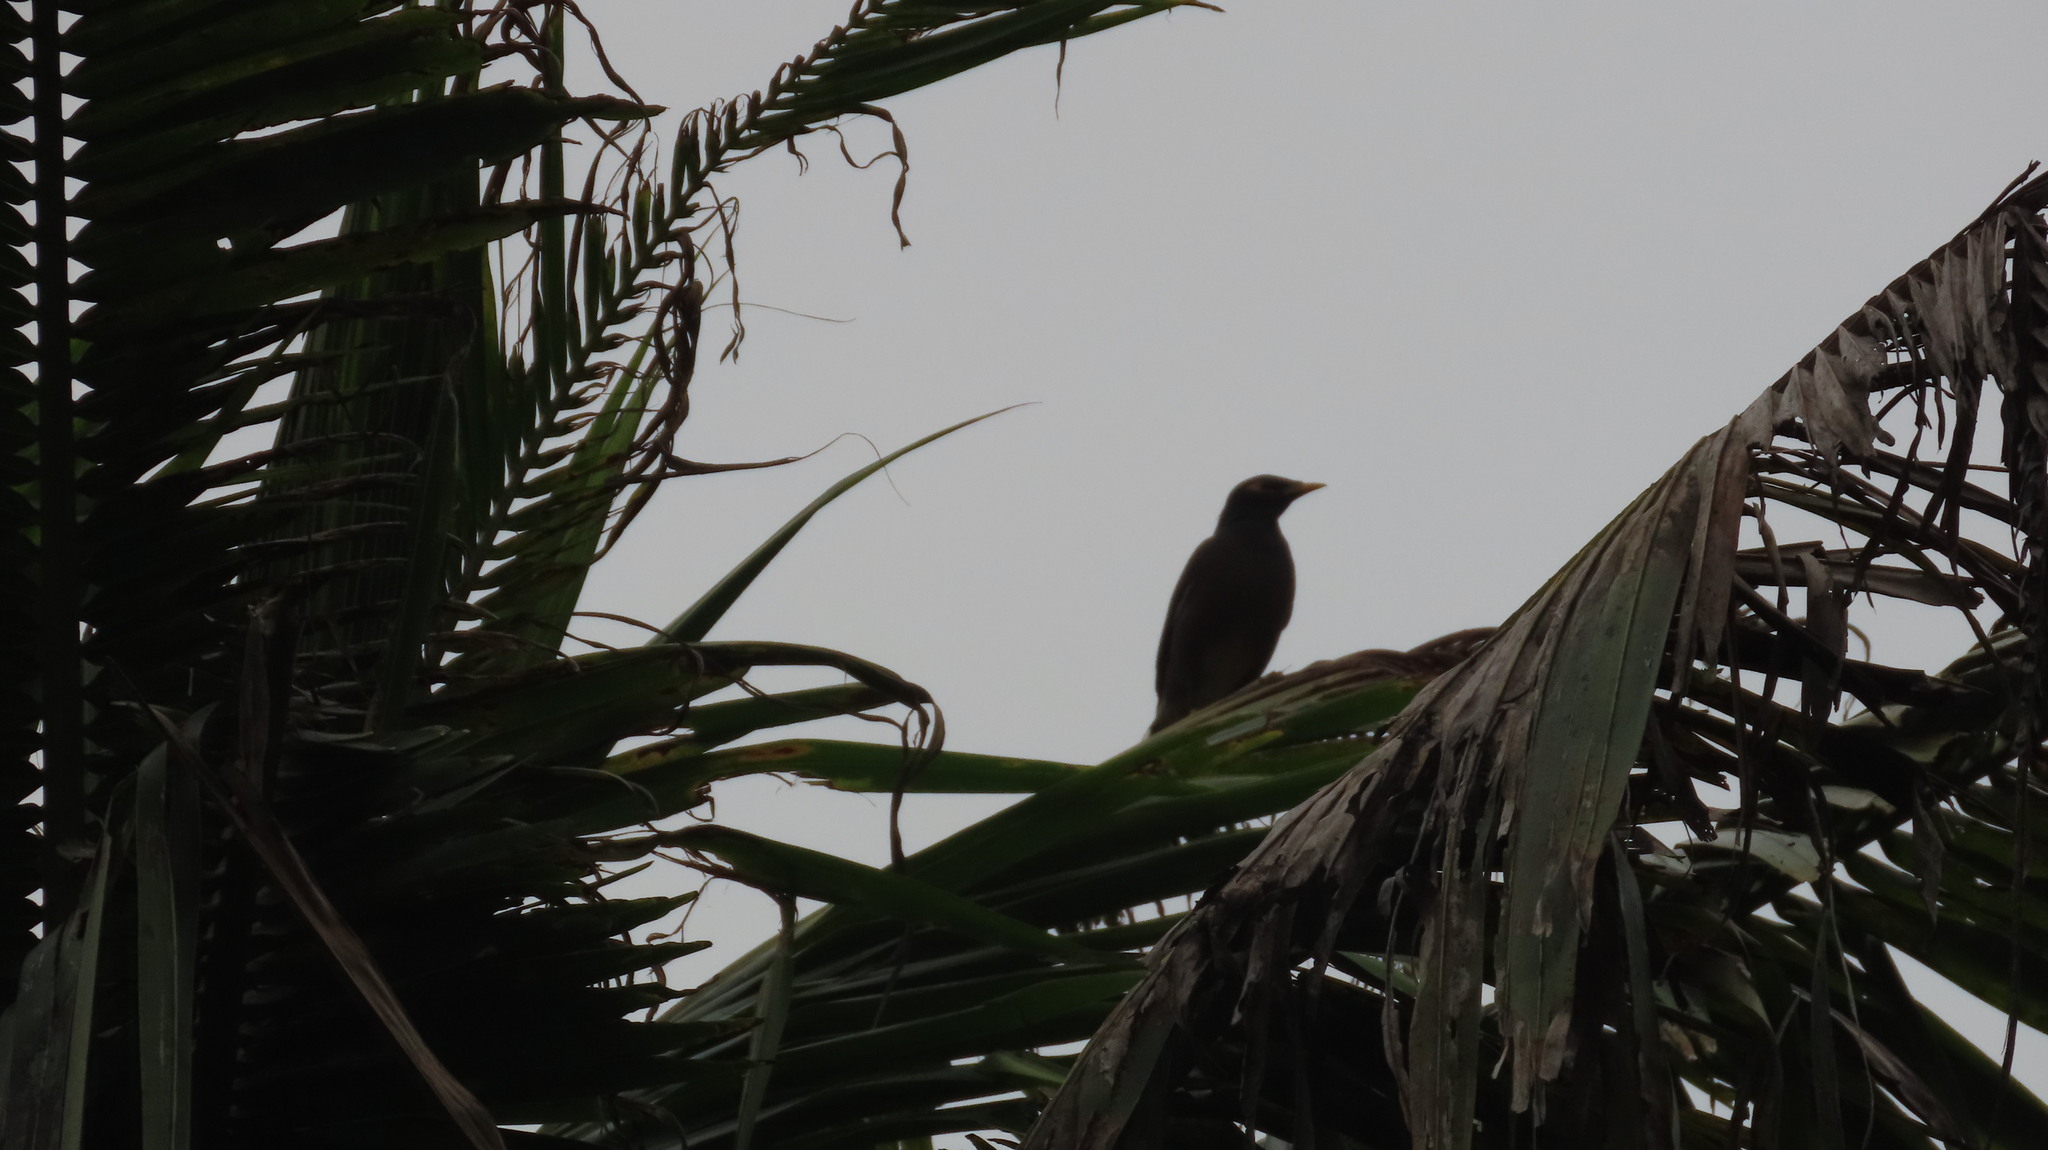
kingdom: Animalia
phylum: Chordata
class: Aves
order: Passeriformes
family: Sturnidae
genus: Acridotheres
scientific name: Acridotheres tristis
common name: Common myna
